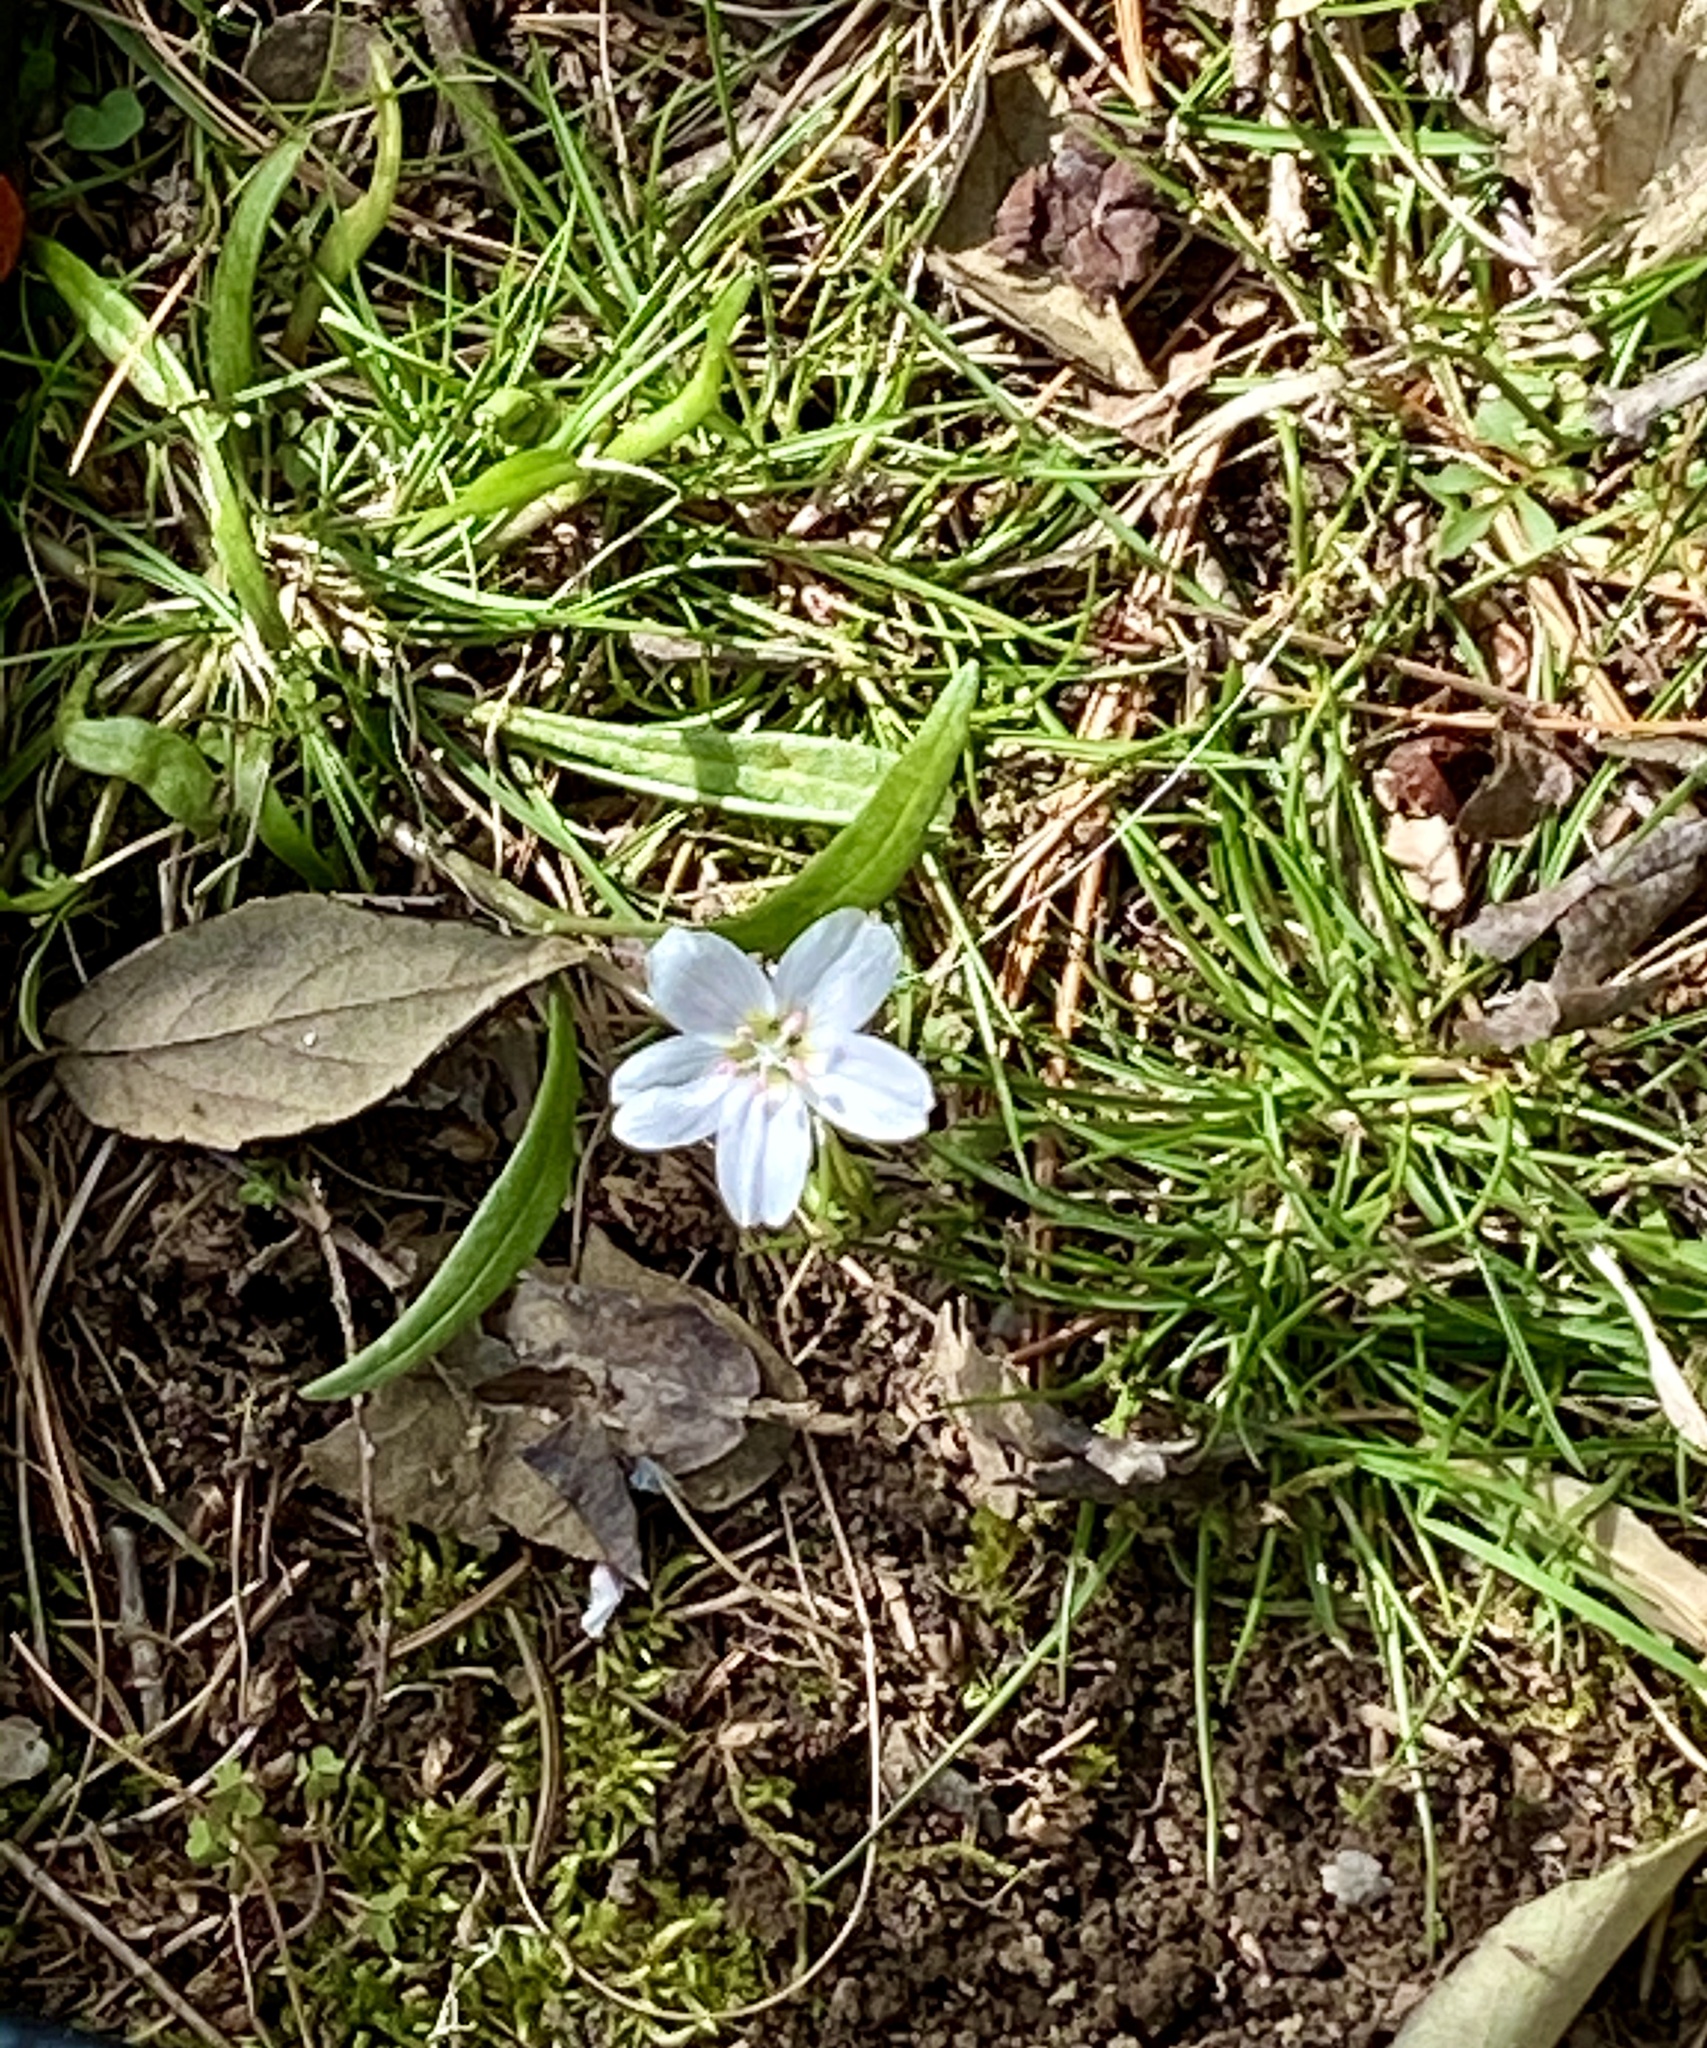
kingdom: Plantae
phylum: Tracheophyta
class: Magnoliopsida
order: Caryophyllales
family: Montiaceae
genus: Claytonia
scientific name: Claytonia virginica
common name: Virginia springbeauty
